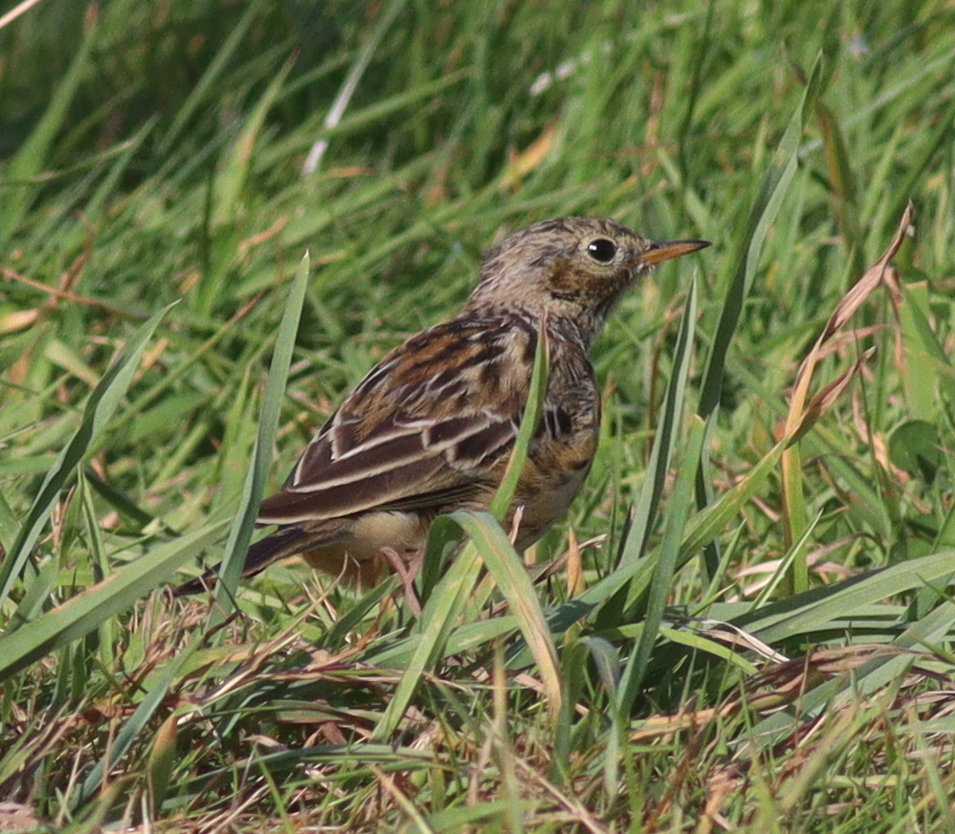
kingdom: Animalia
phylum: Chordata
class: Aves
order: Passeriformes
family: Motacillidae
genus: Anthus
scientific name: Anthus pratensis
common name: Meadow pipit
